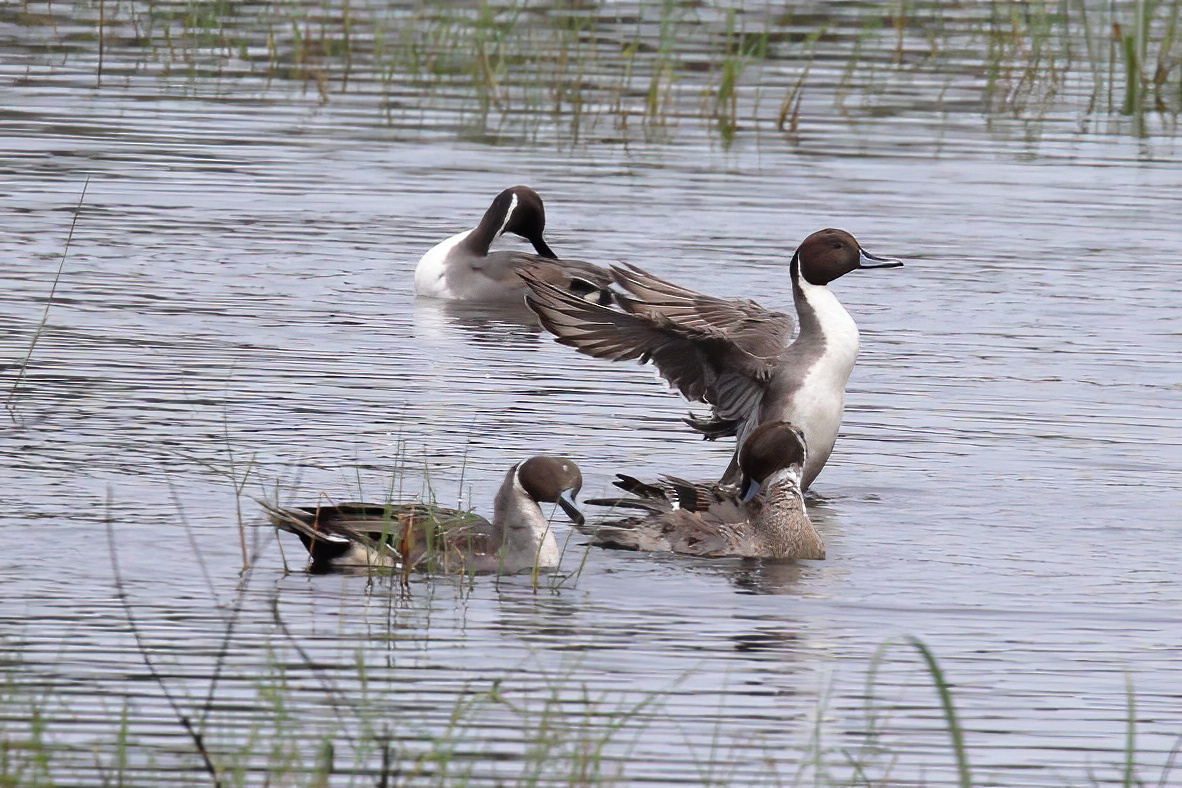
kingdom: Animalia
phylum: Chordata
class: Aves
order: Anseriformes
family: Anatidae
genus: Anas
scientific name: Anas acuta
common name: Northern pintail
